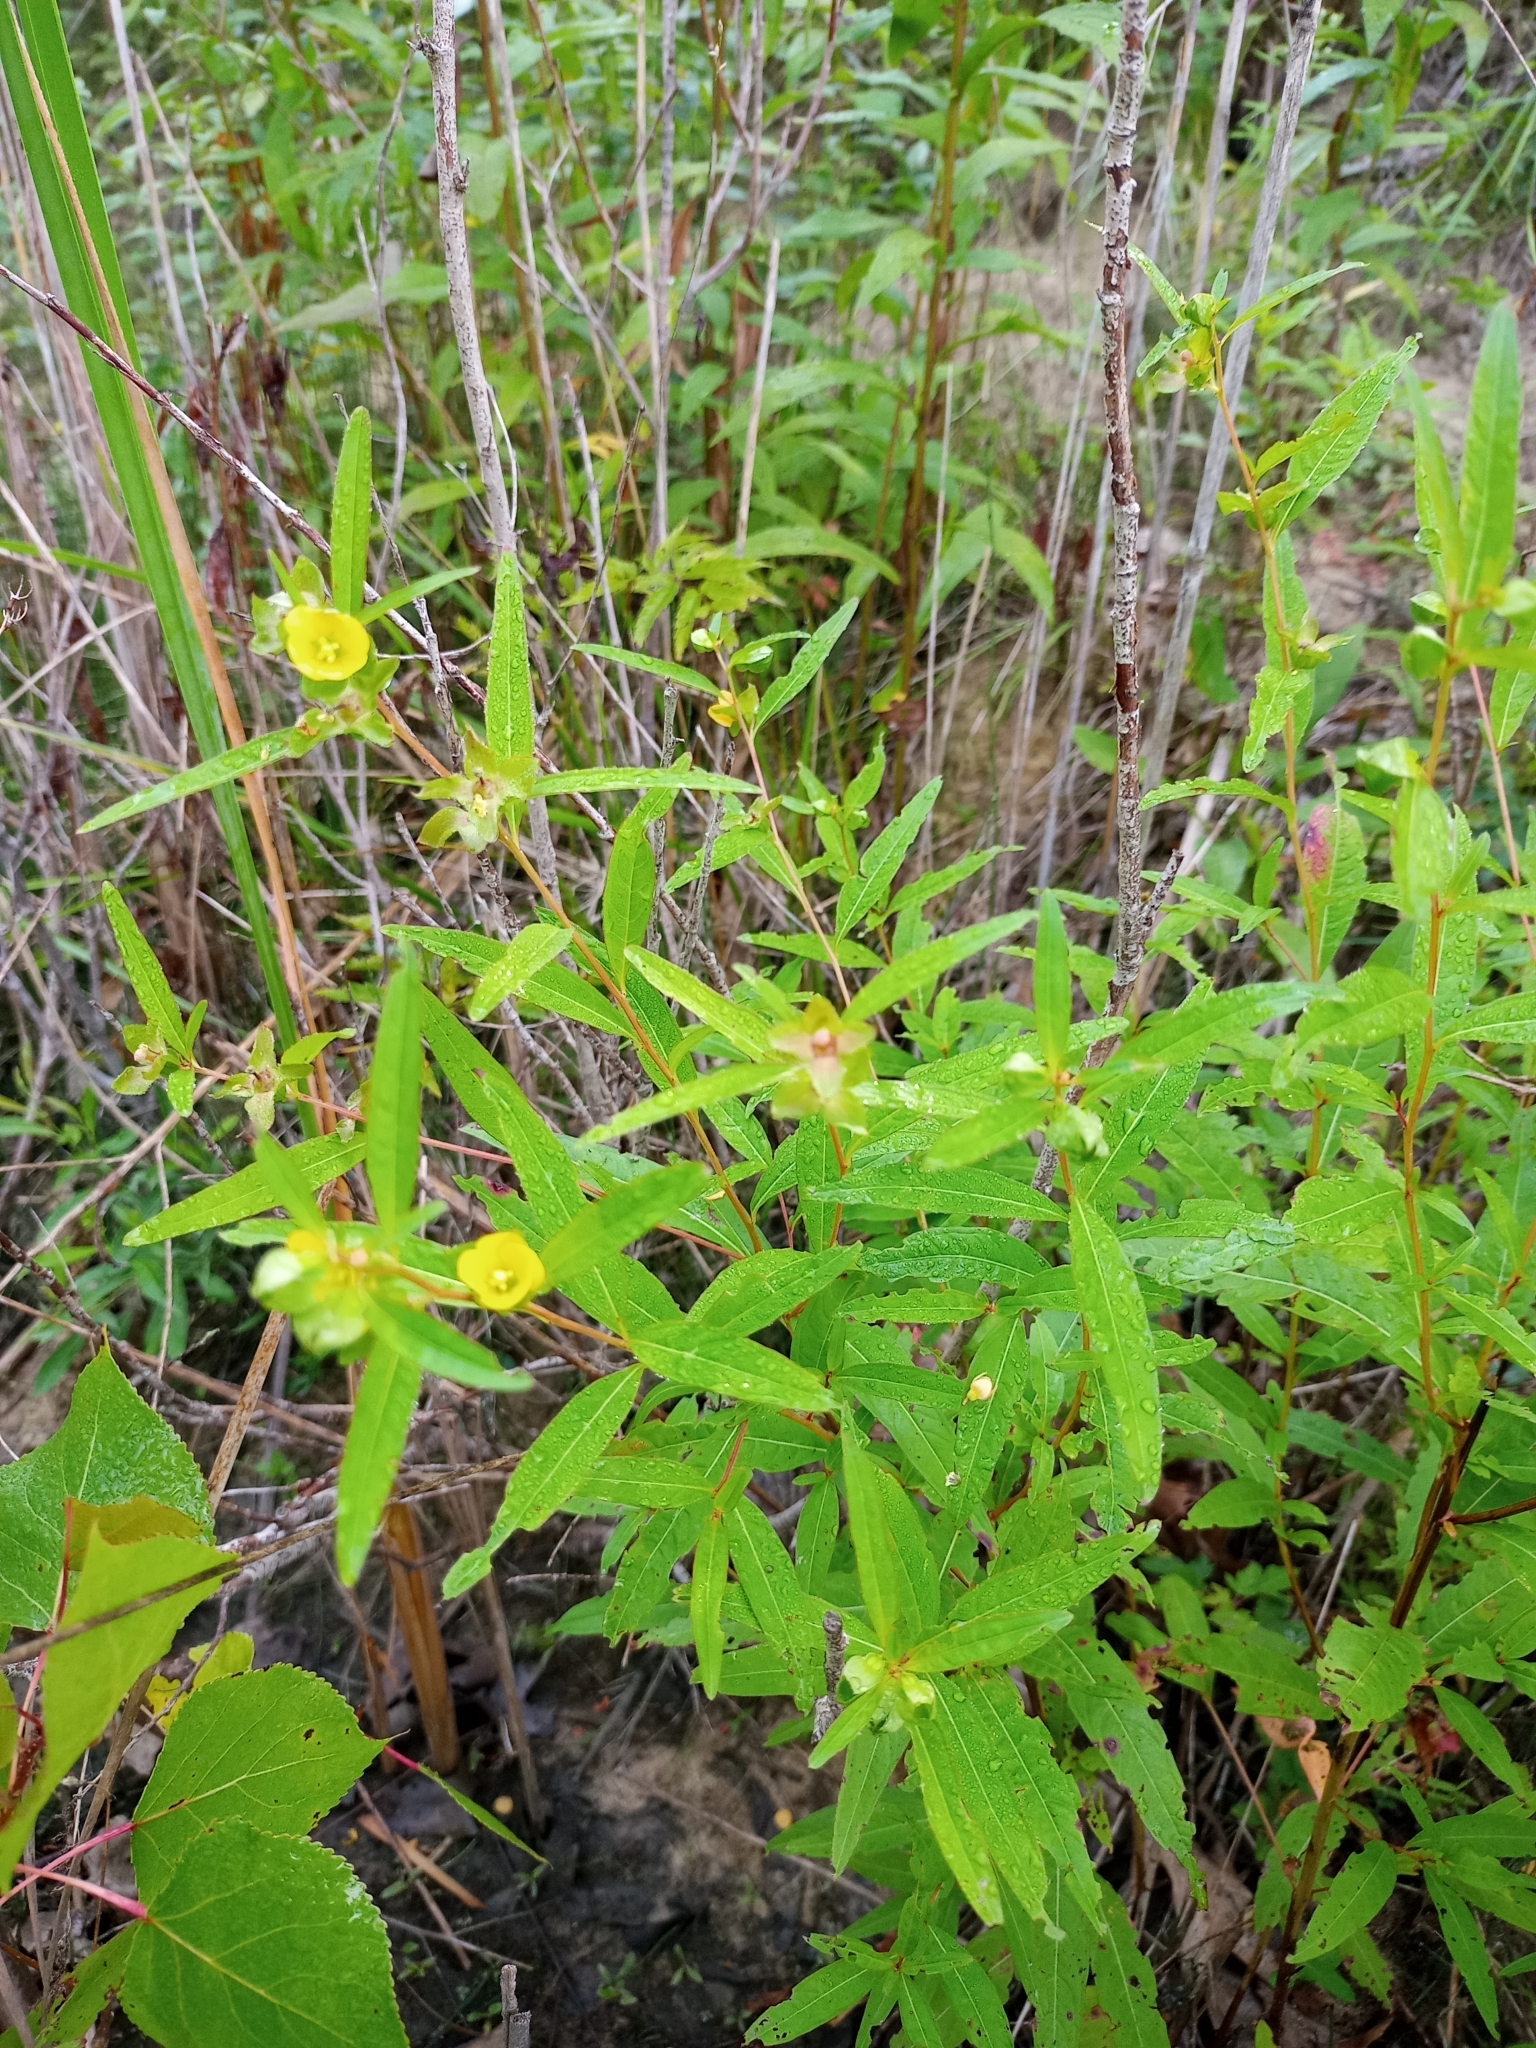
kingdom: Plantae
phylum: Tracheophyta
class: Magnoliopsida
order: Myrtales
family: Onagraceae
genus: Ludwigia
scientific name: Ludwigia alternifolia
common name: Rattlebox
